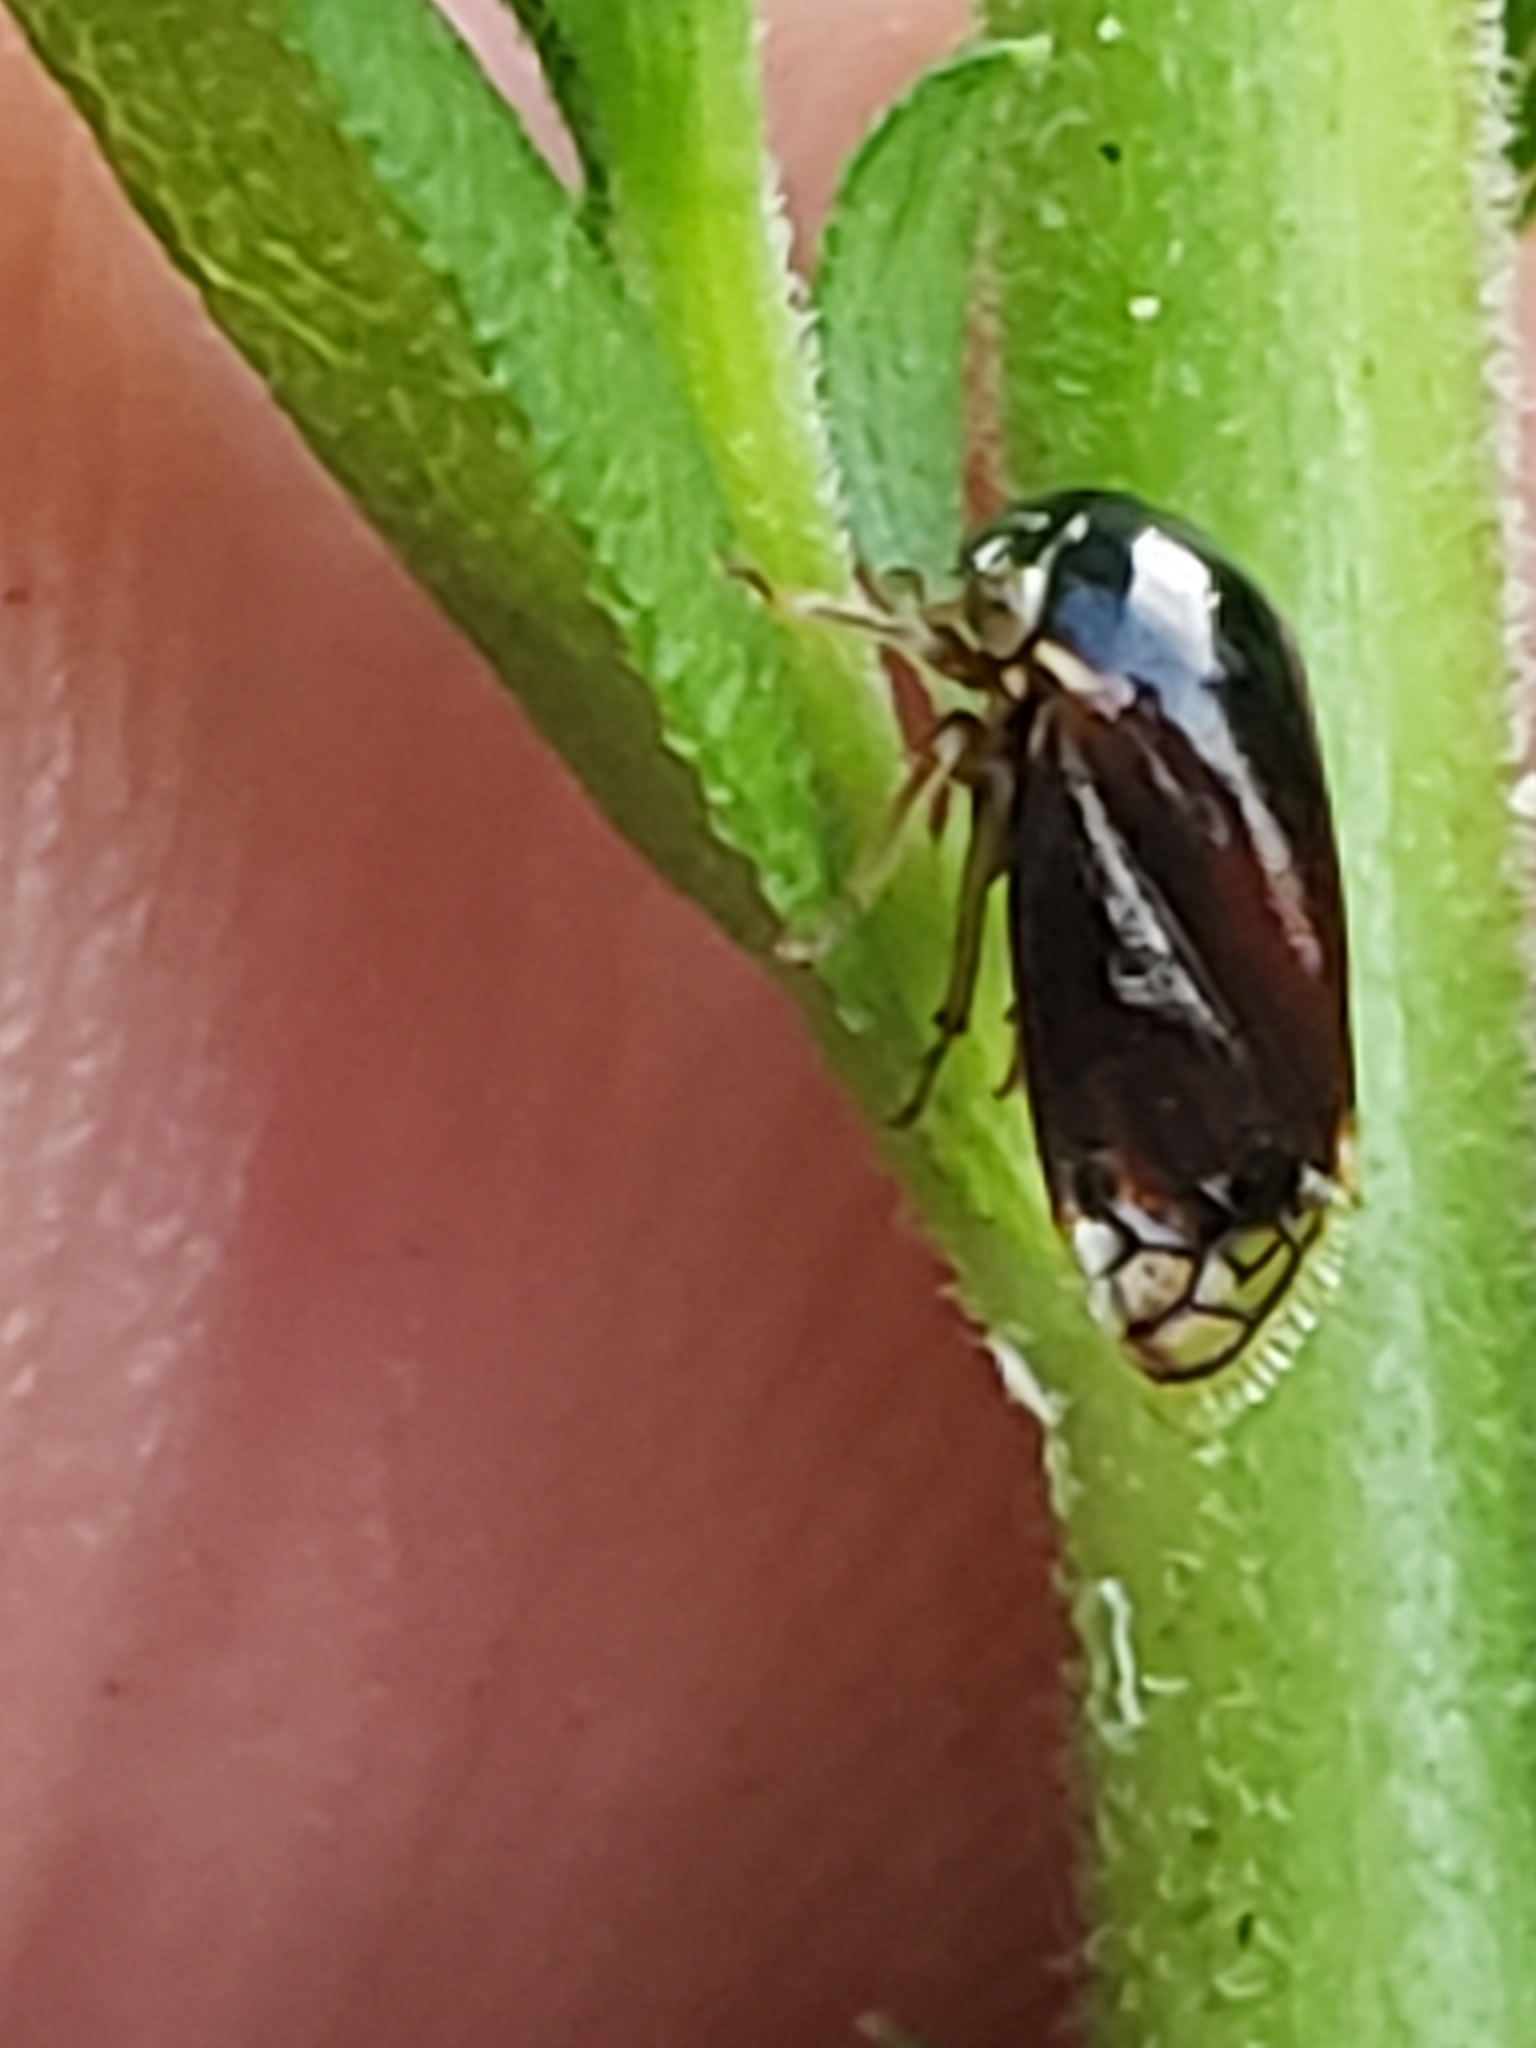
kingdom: Animalia
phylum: Arthropoda
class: Insecta
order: Hemiptera
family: Membracidae
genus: Acutalis
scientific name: Acutalis tartarea
